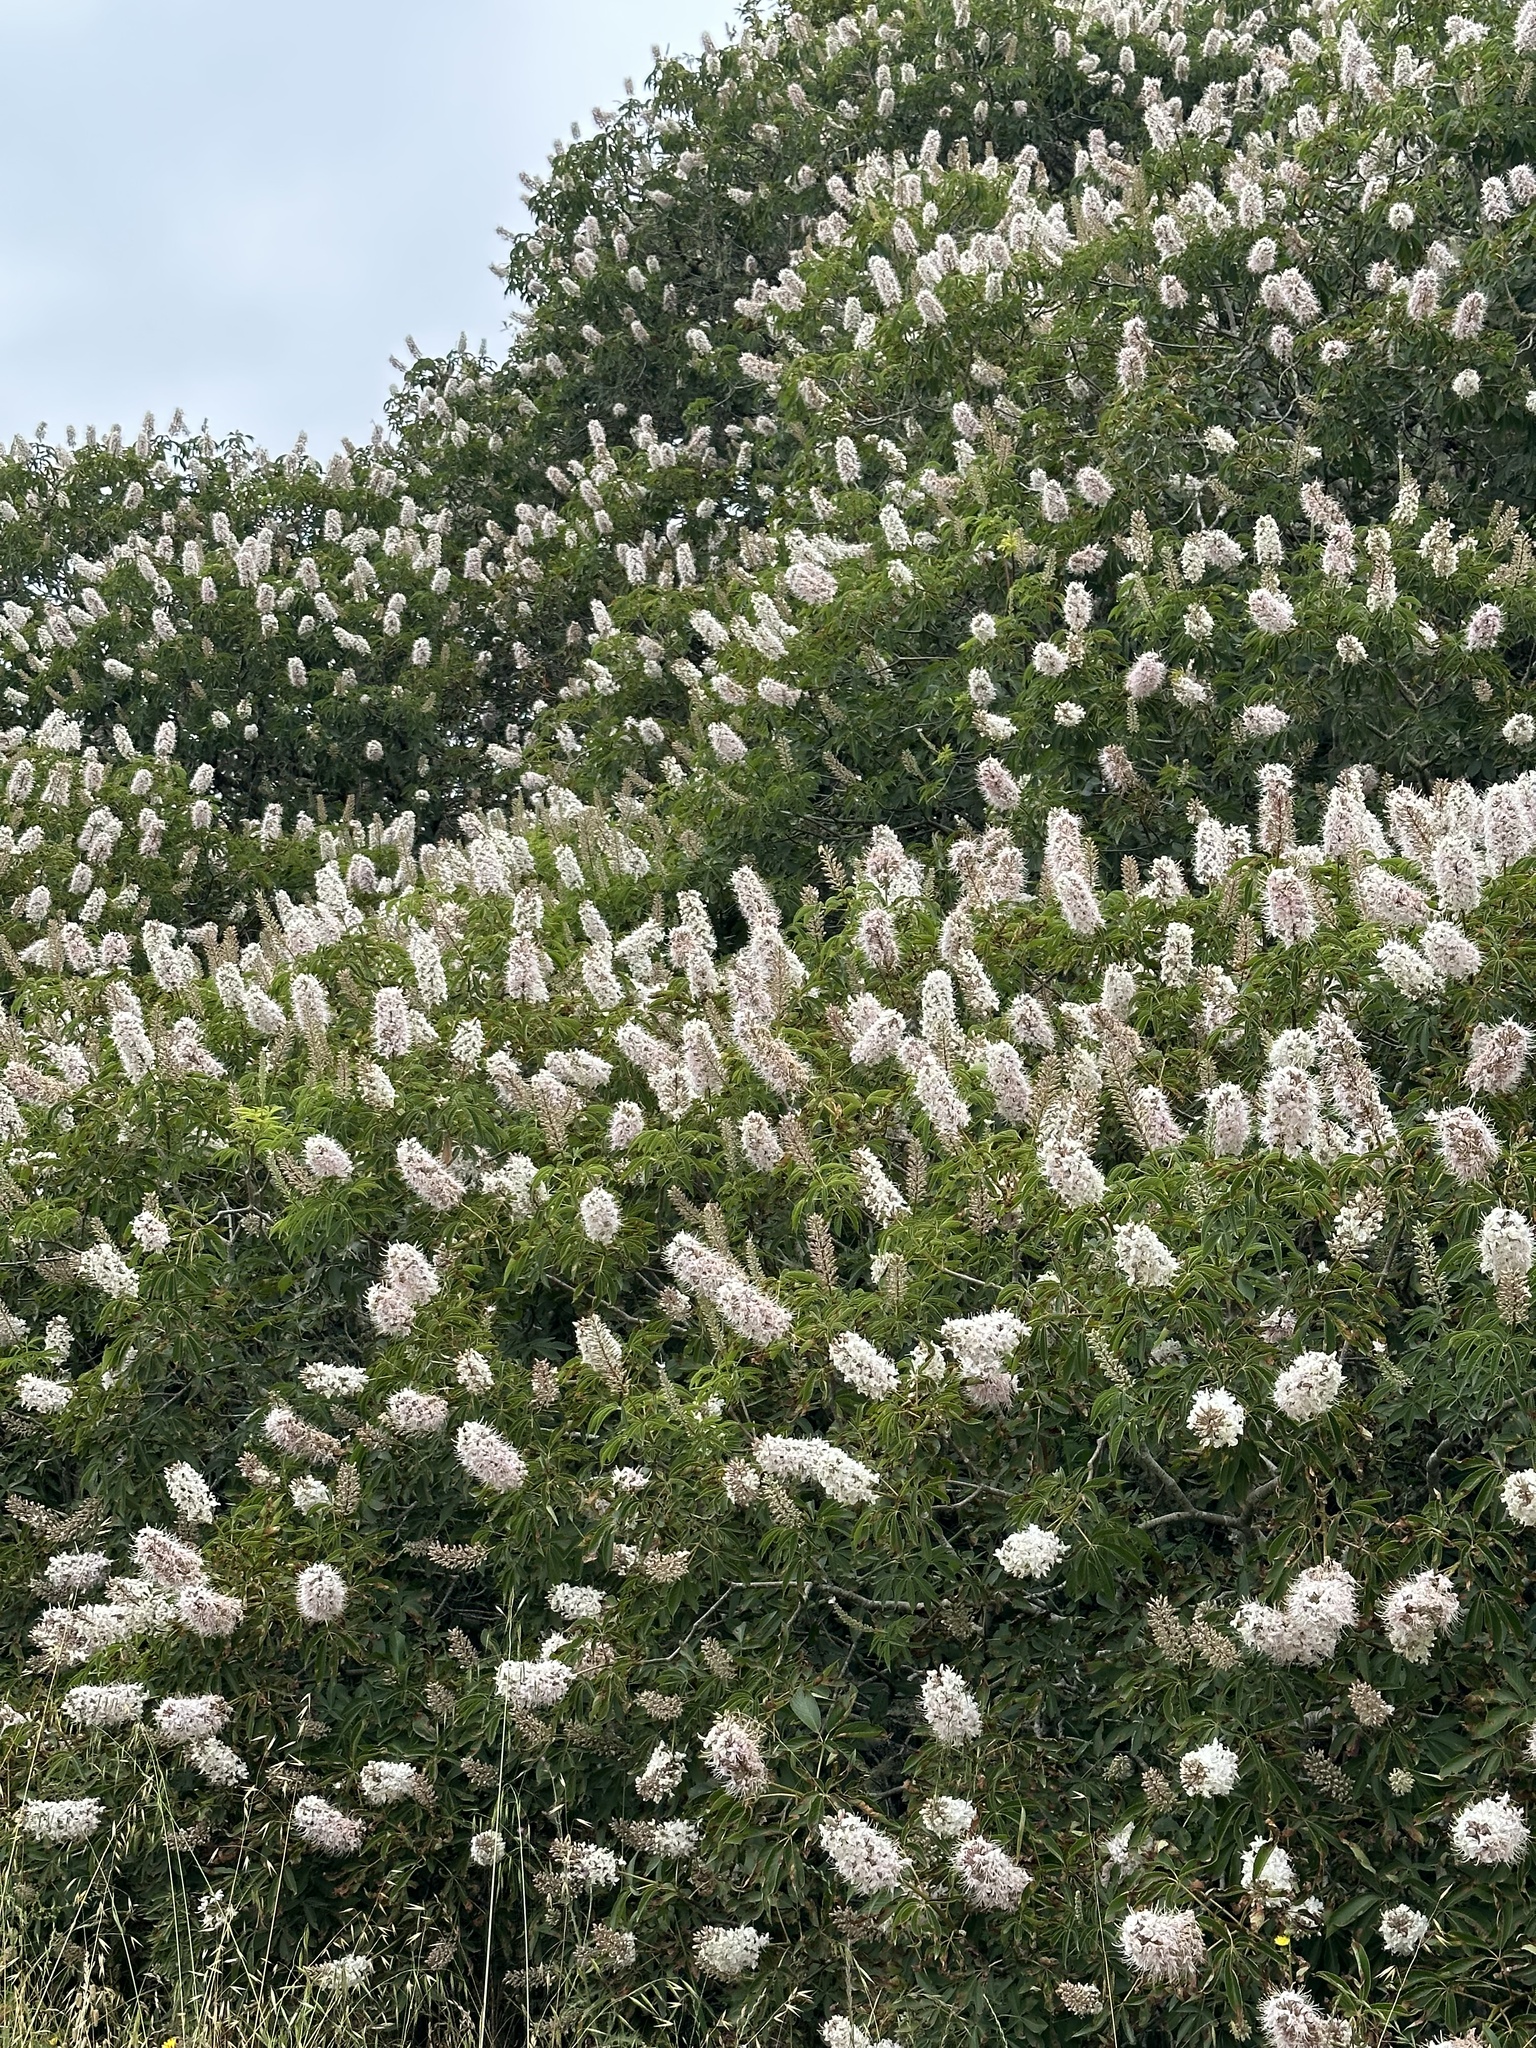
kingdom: Plantae
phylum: Tracheophyta
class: Magnoliopsida
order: Sapindales
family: Sapindaceae
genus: Aesculus
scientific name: Aesculus californica
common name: California buckeye
